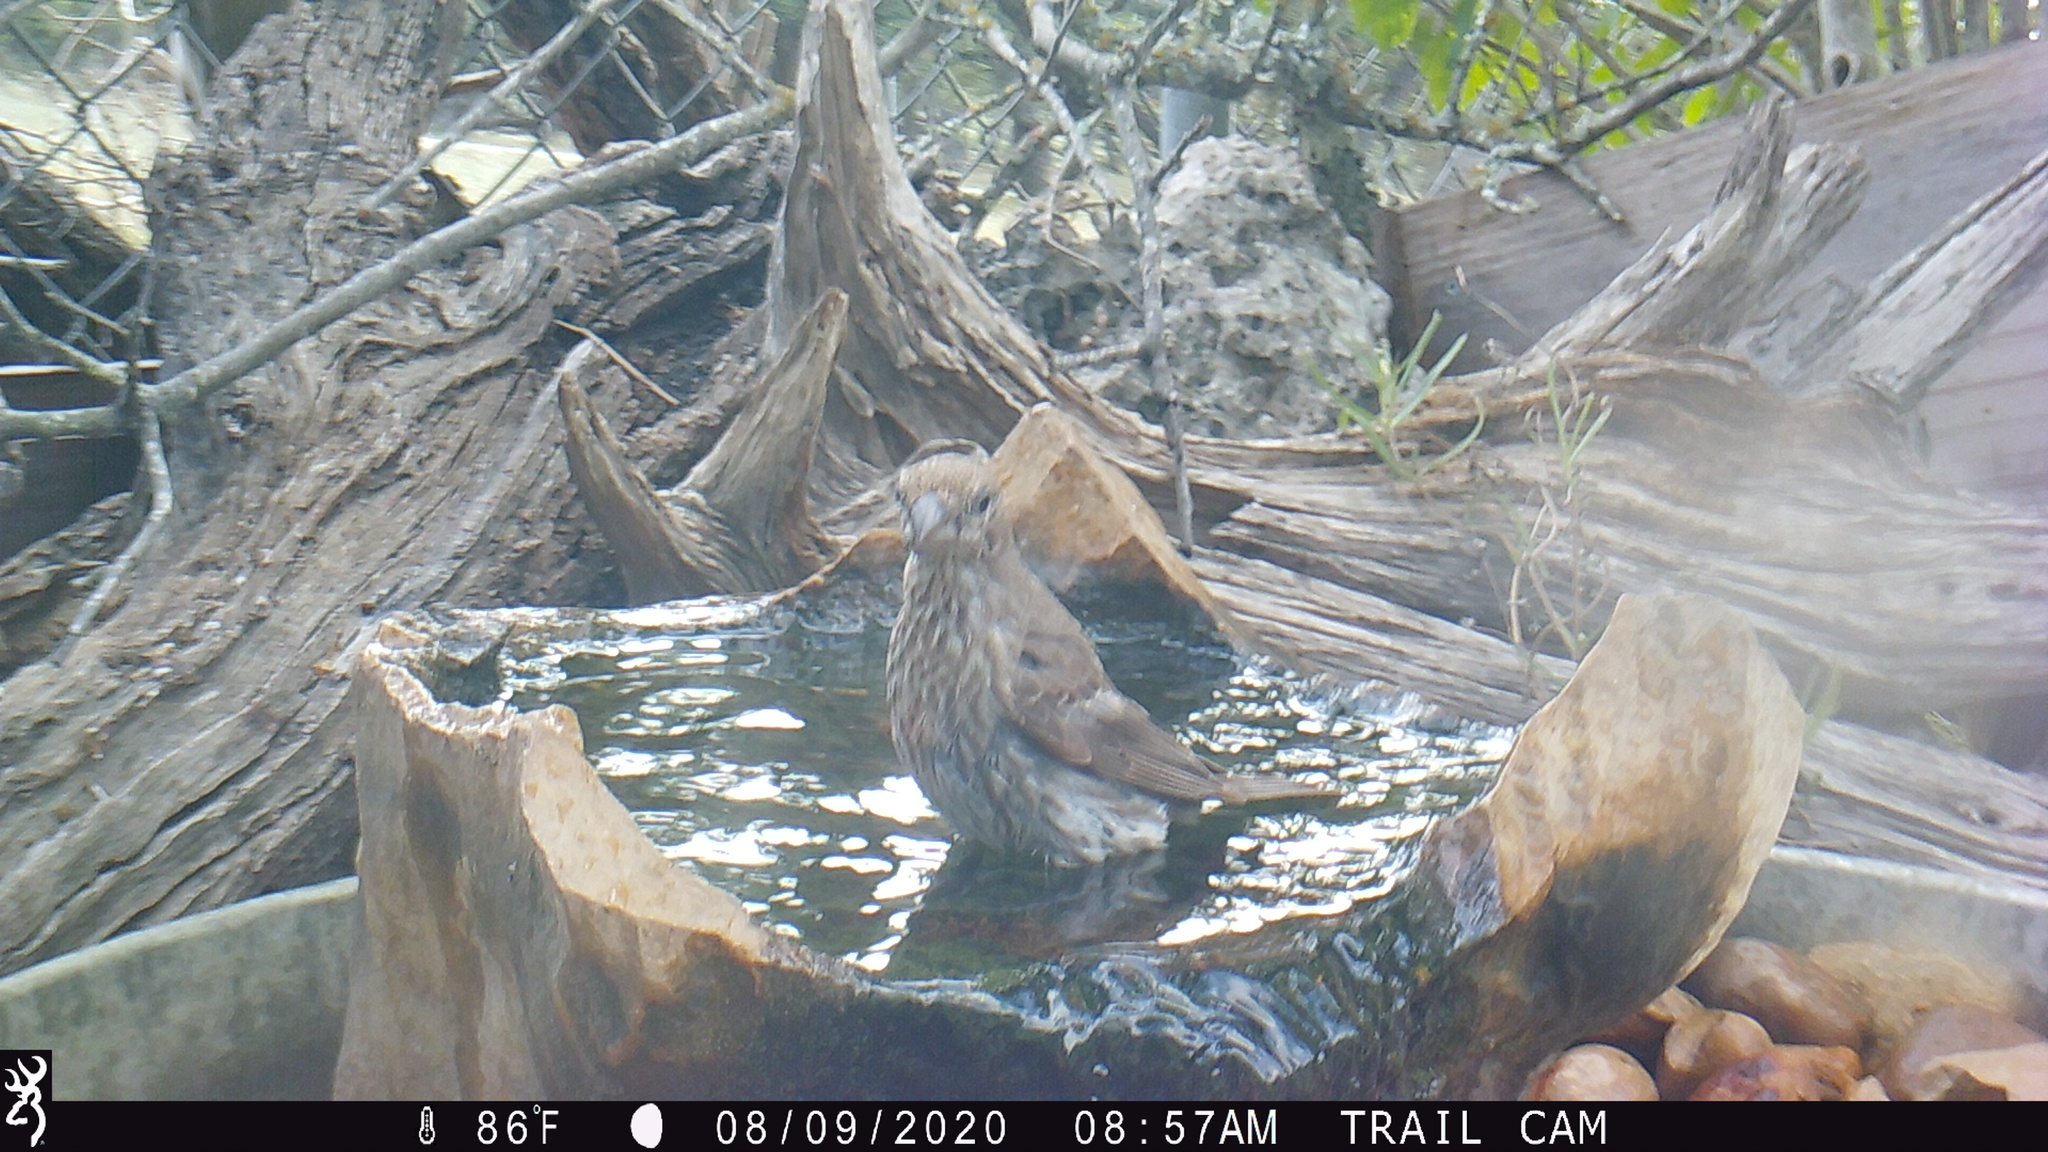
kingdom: Animalia
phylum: Chordata
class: Aves
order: Passeriformes
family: Fringillidae
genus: Haemorhous
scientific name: Haemorhous mexicanus
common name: House finch
